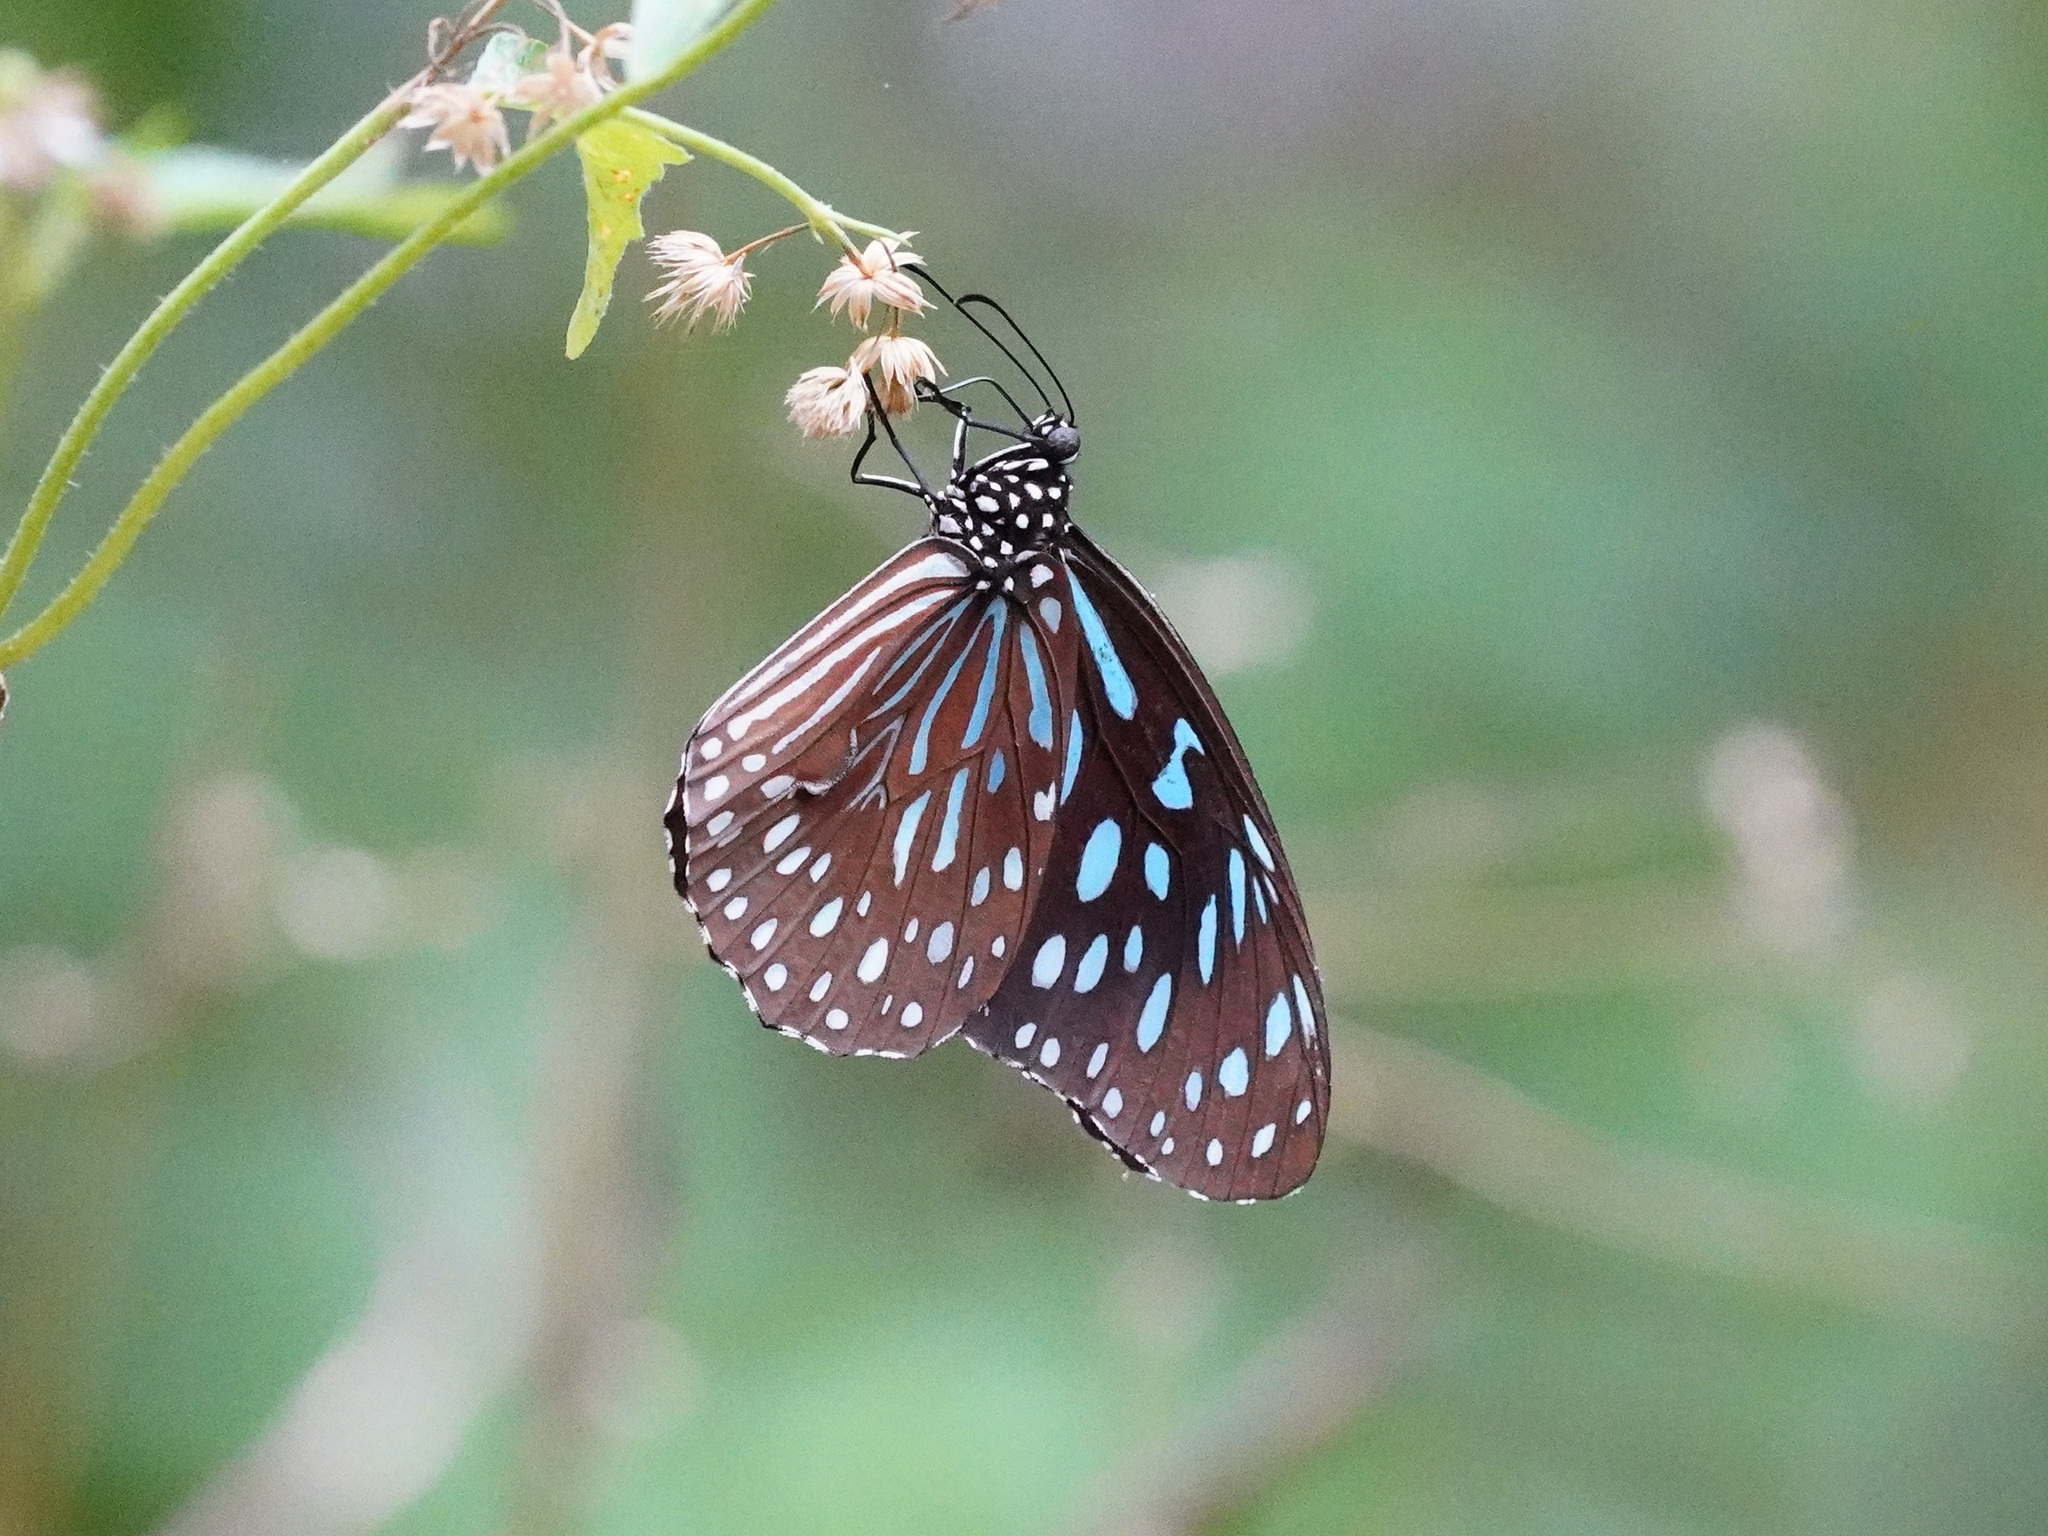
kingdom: Animalia
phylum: Arthropoda
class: Insecta
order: Lepidoptera
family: Nymphalidae
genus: Tirumala
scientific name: Tirumala septentrionis
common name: Dark blue tiger butterfly
